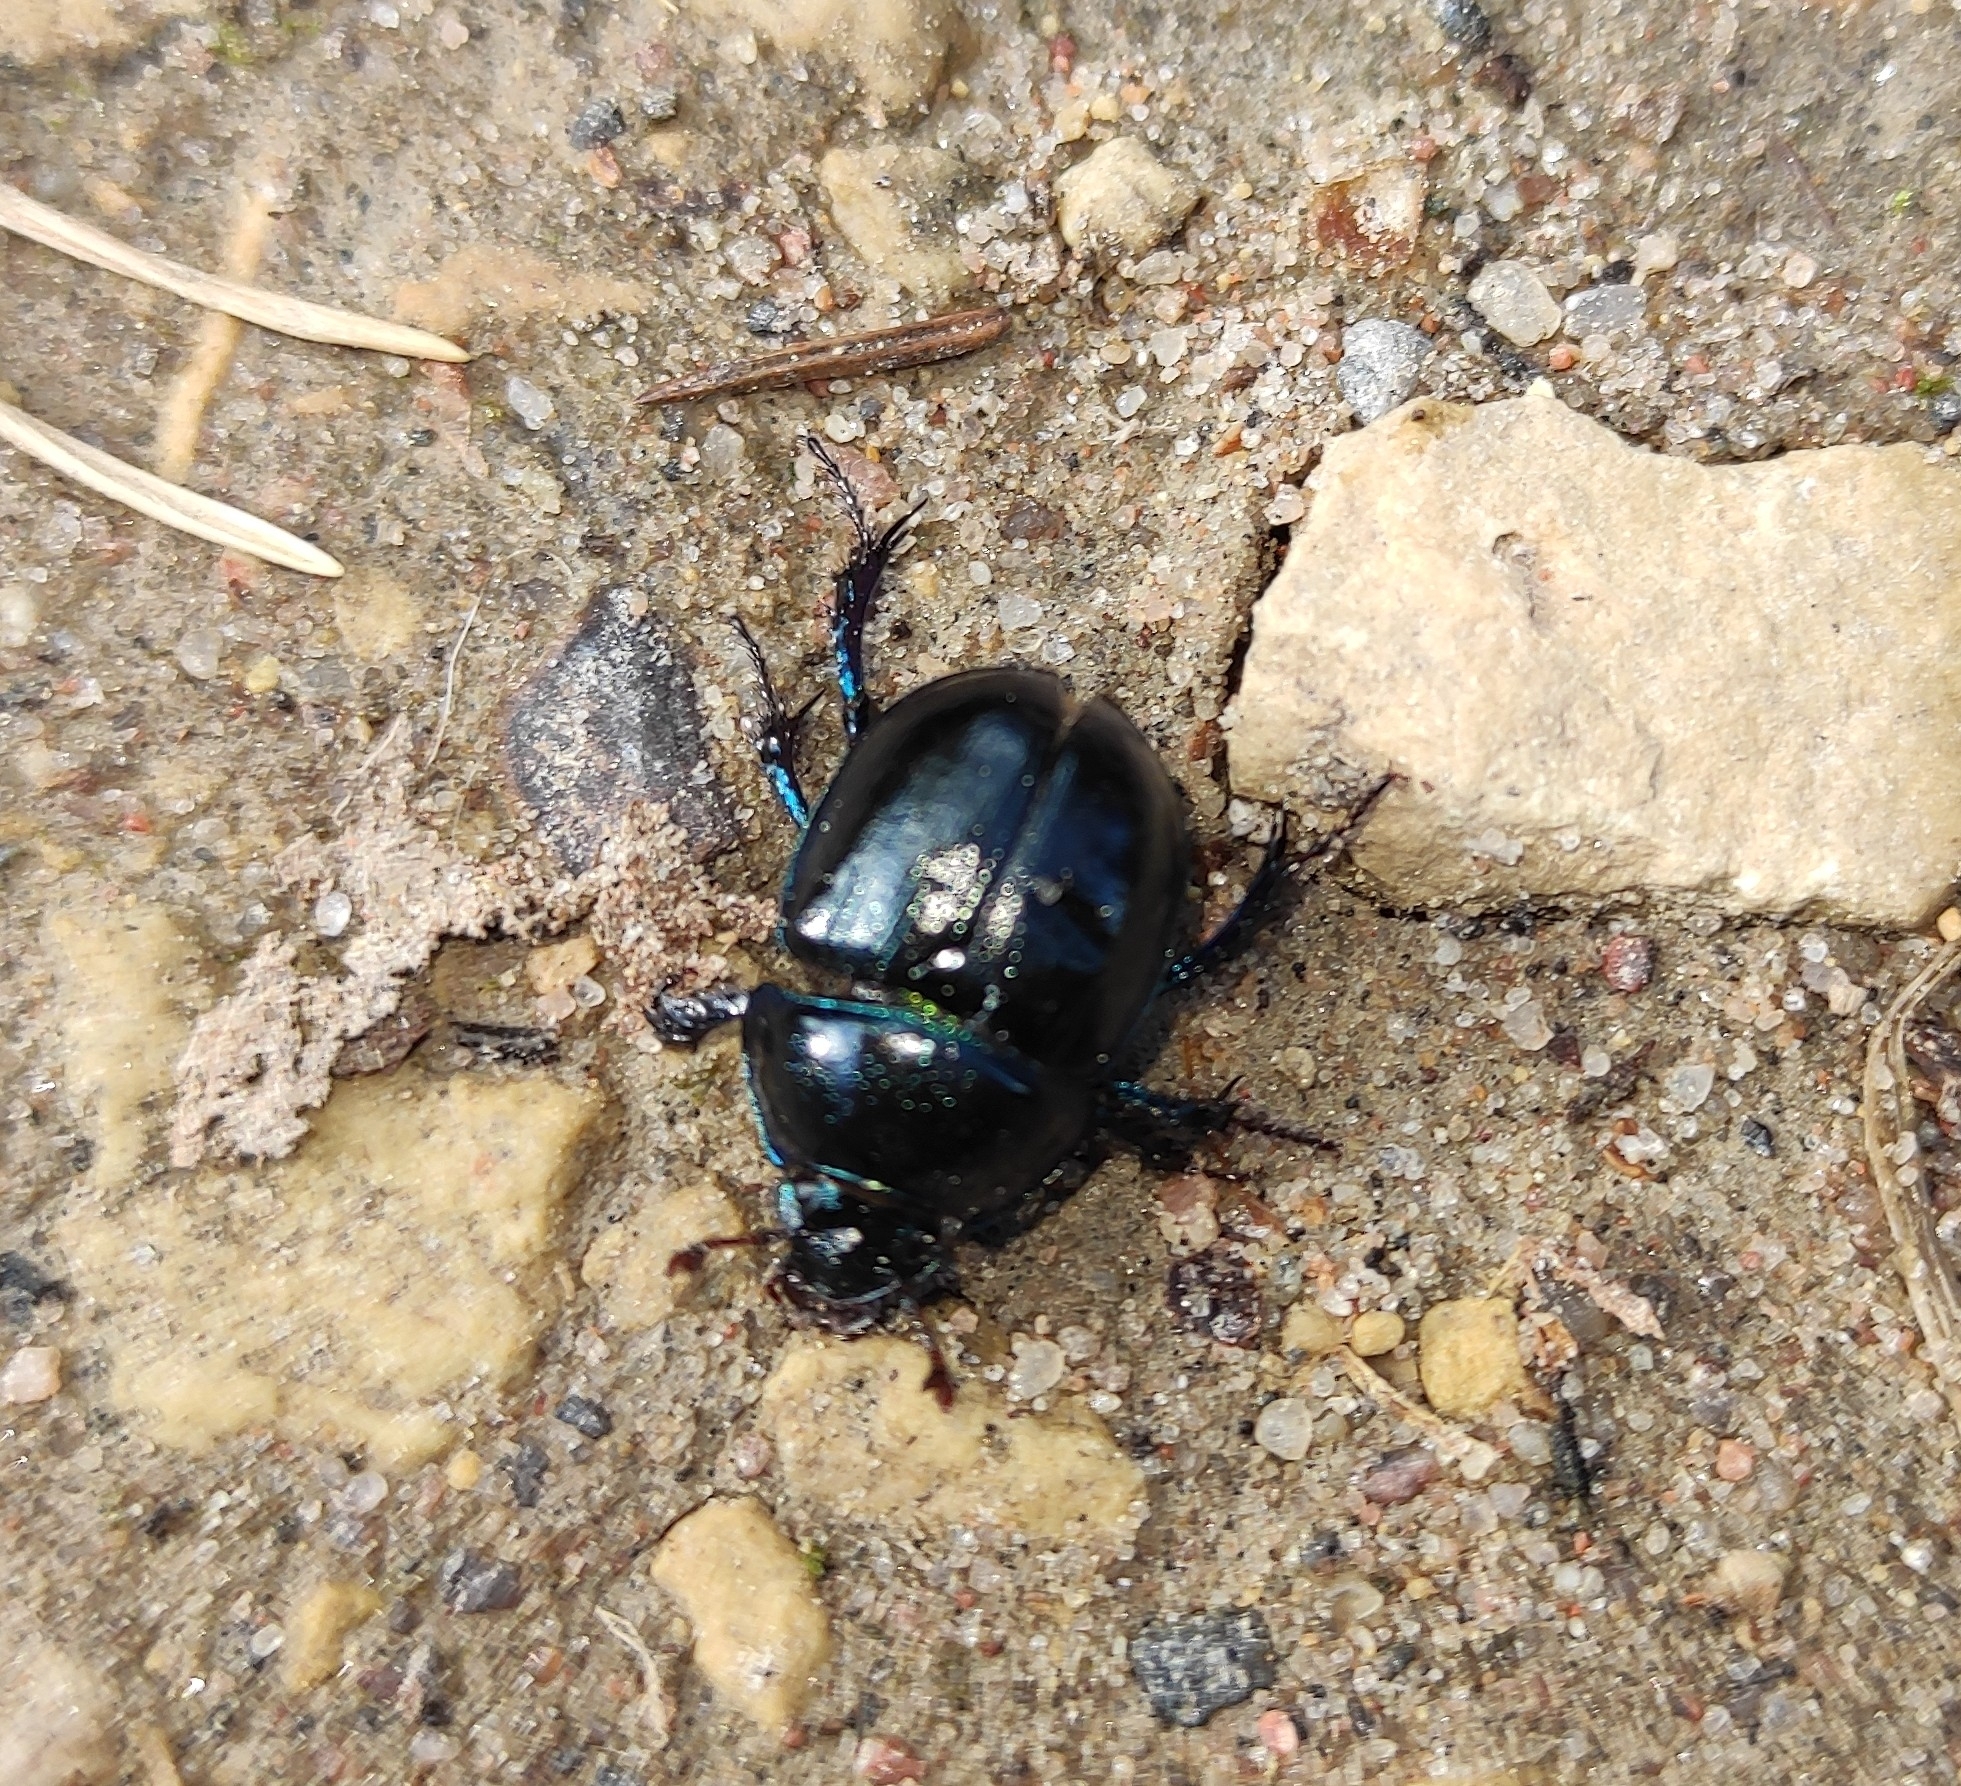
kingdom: Animalia
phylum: Arthropoda
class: Insecta
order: Coleoptera
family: Geotrupidae
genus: Anoplotrupes
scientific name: Anoplotrupes stercorosus
